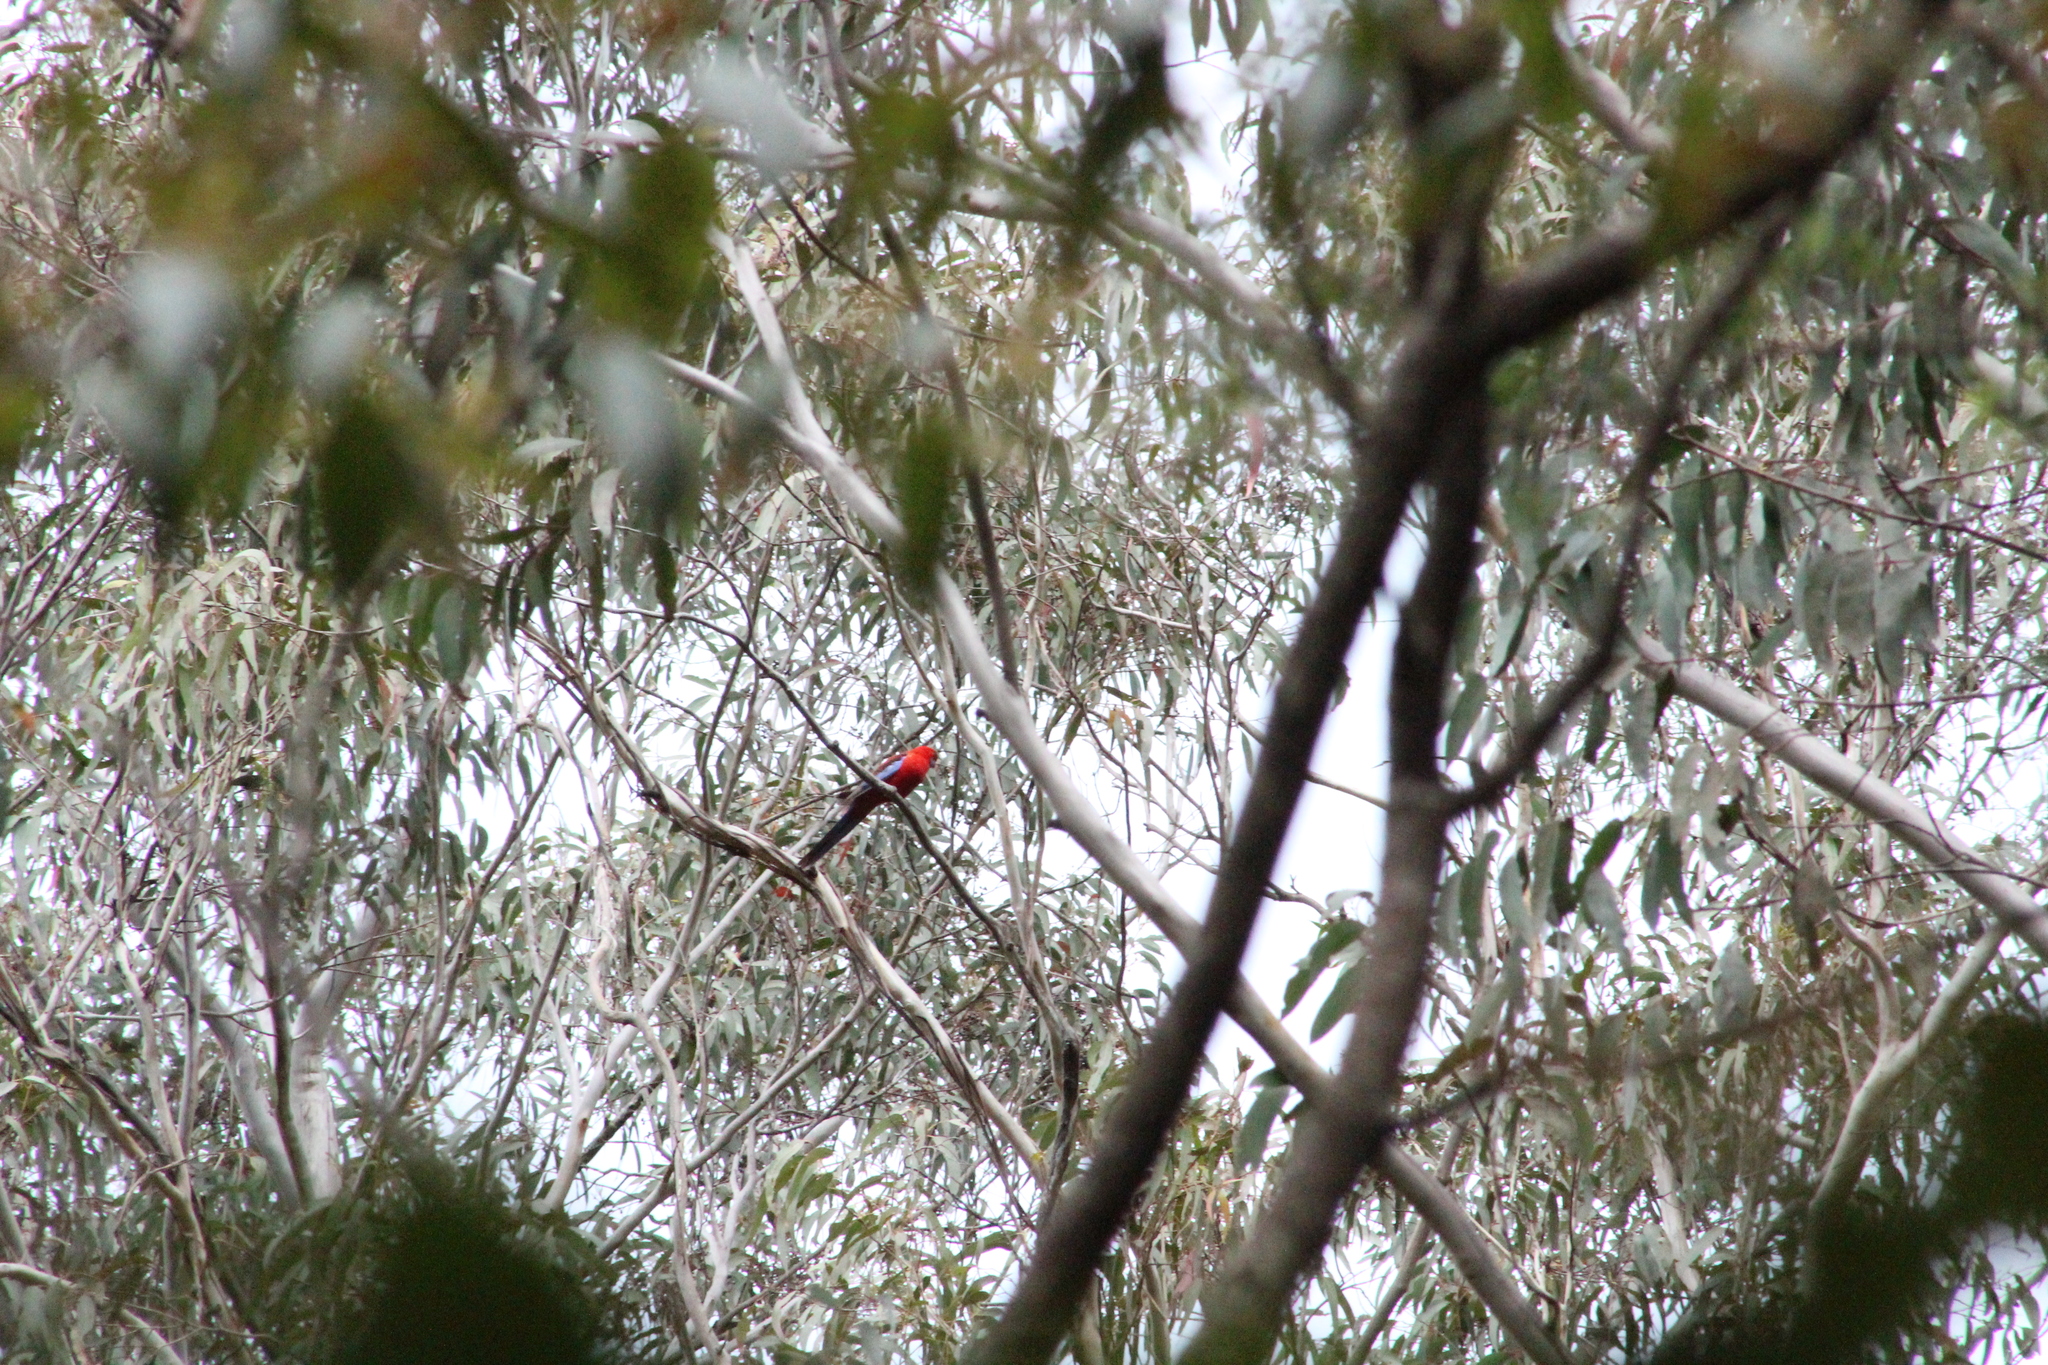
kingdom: Animalia
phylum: Chordata
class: Aves
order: Psittaciformes
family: Psittacidae
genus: Platycercus
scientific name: Platycercus elegans
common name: Crimson rosella
